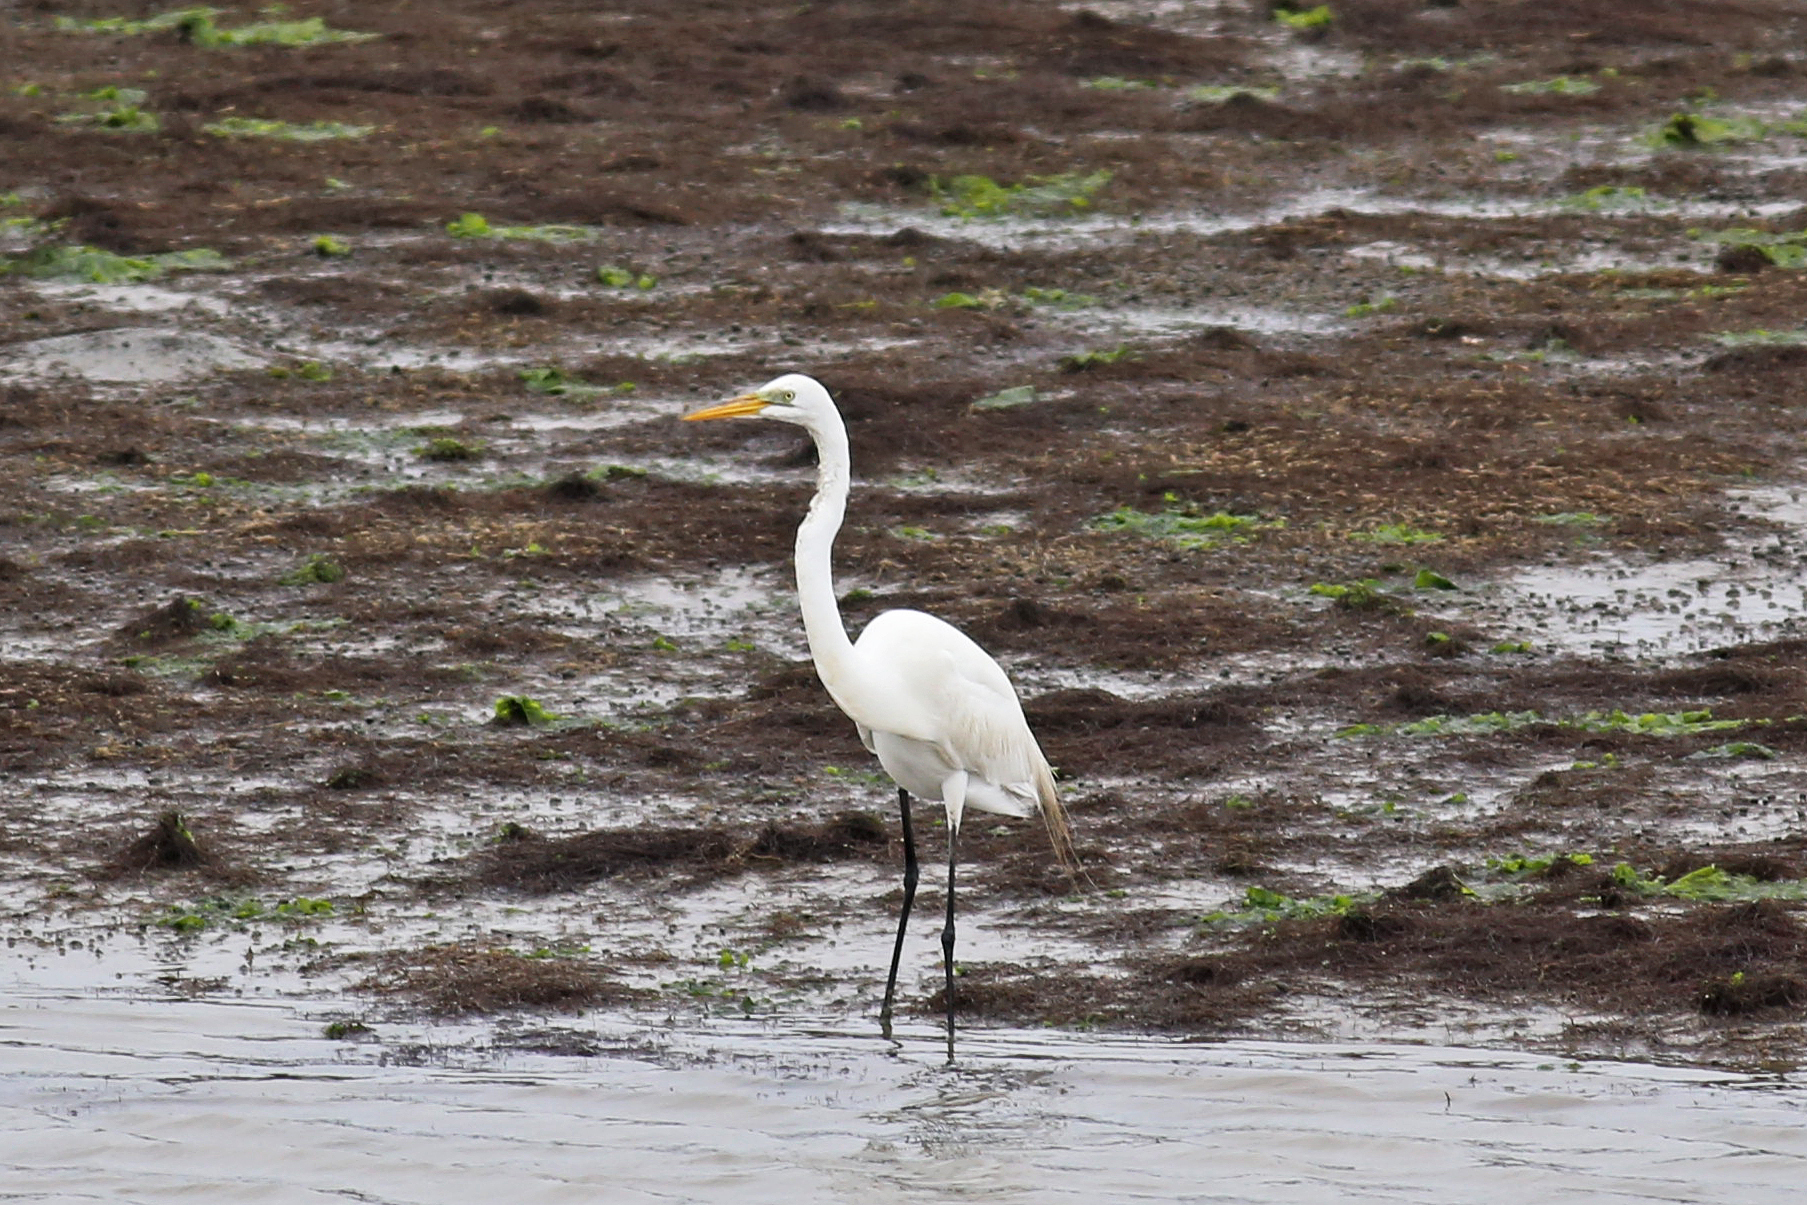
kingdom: Animalia
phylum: Chordata
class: Aves
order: Pelecaniformes
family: Ardeidae
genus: Ardea
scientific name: Ardea alba
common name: Great egret
